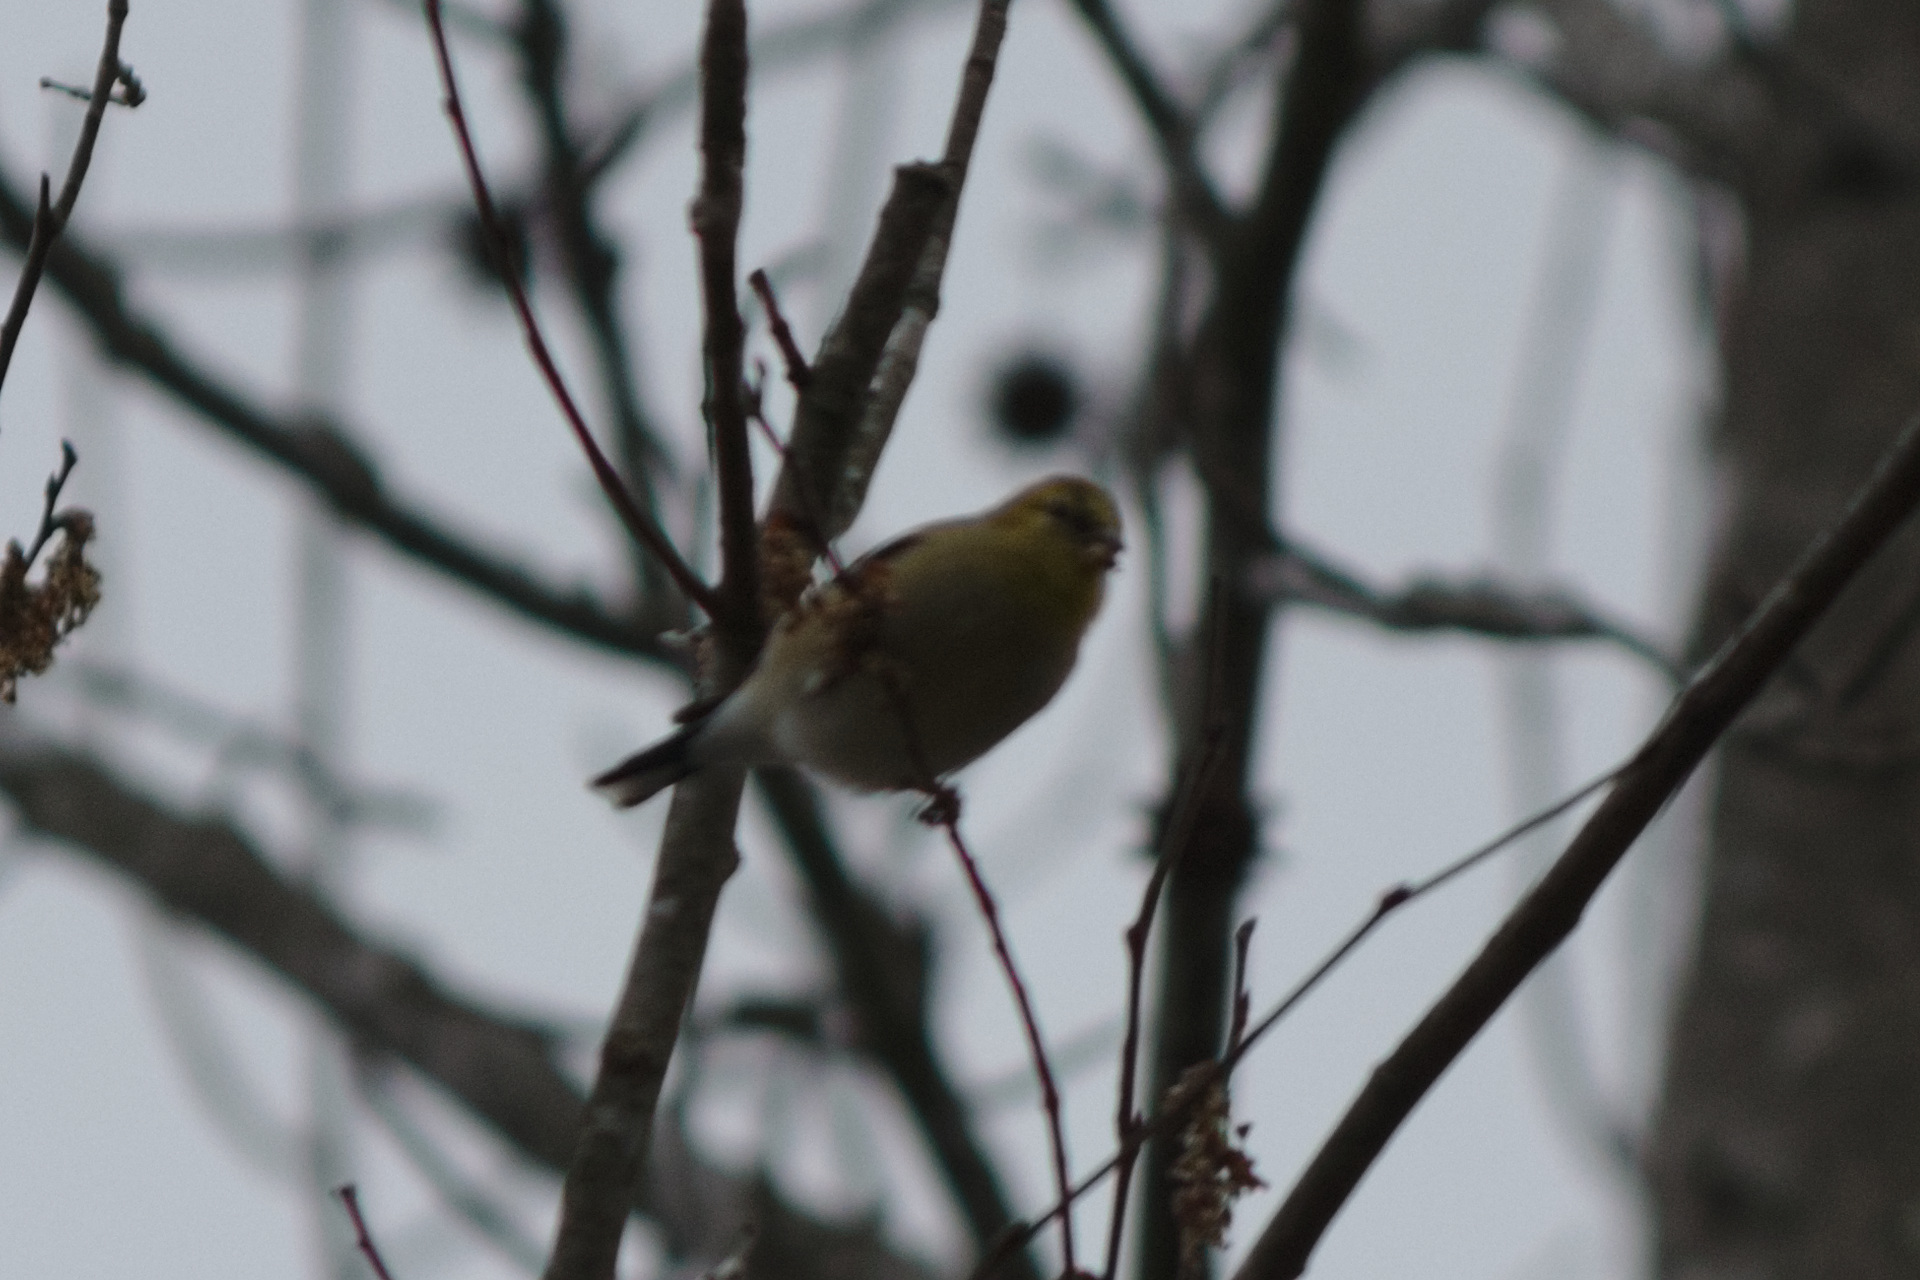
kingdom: Animalia
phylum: Chordata
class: Aves
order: Passeriformes
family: Fringillidae
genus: Spinus
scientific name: Spinus tristis
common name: American goldfinch
